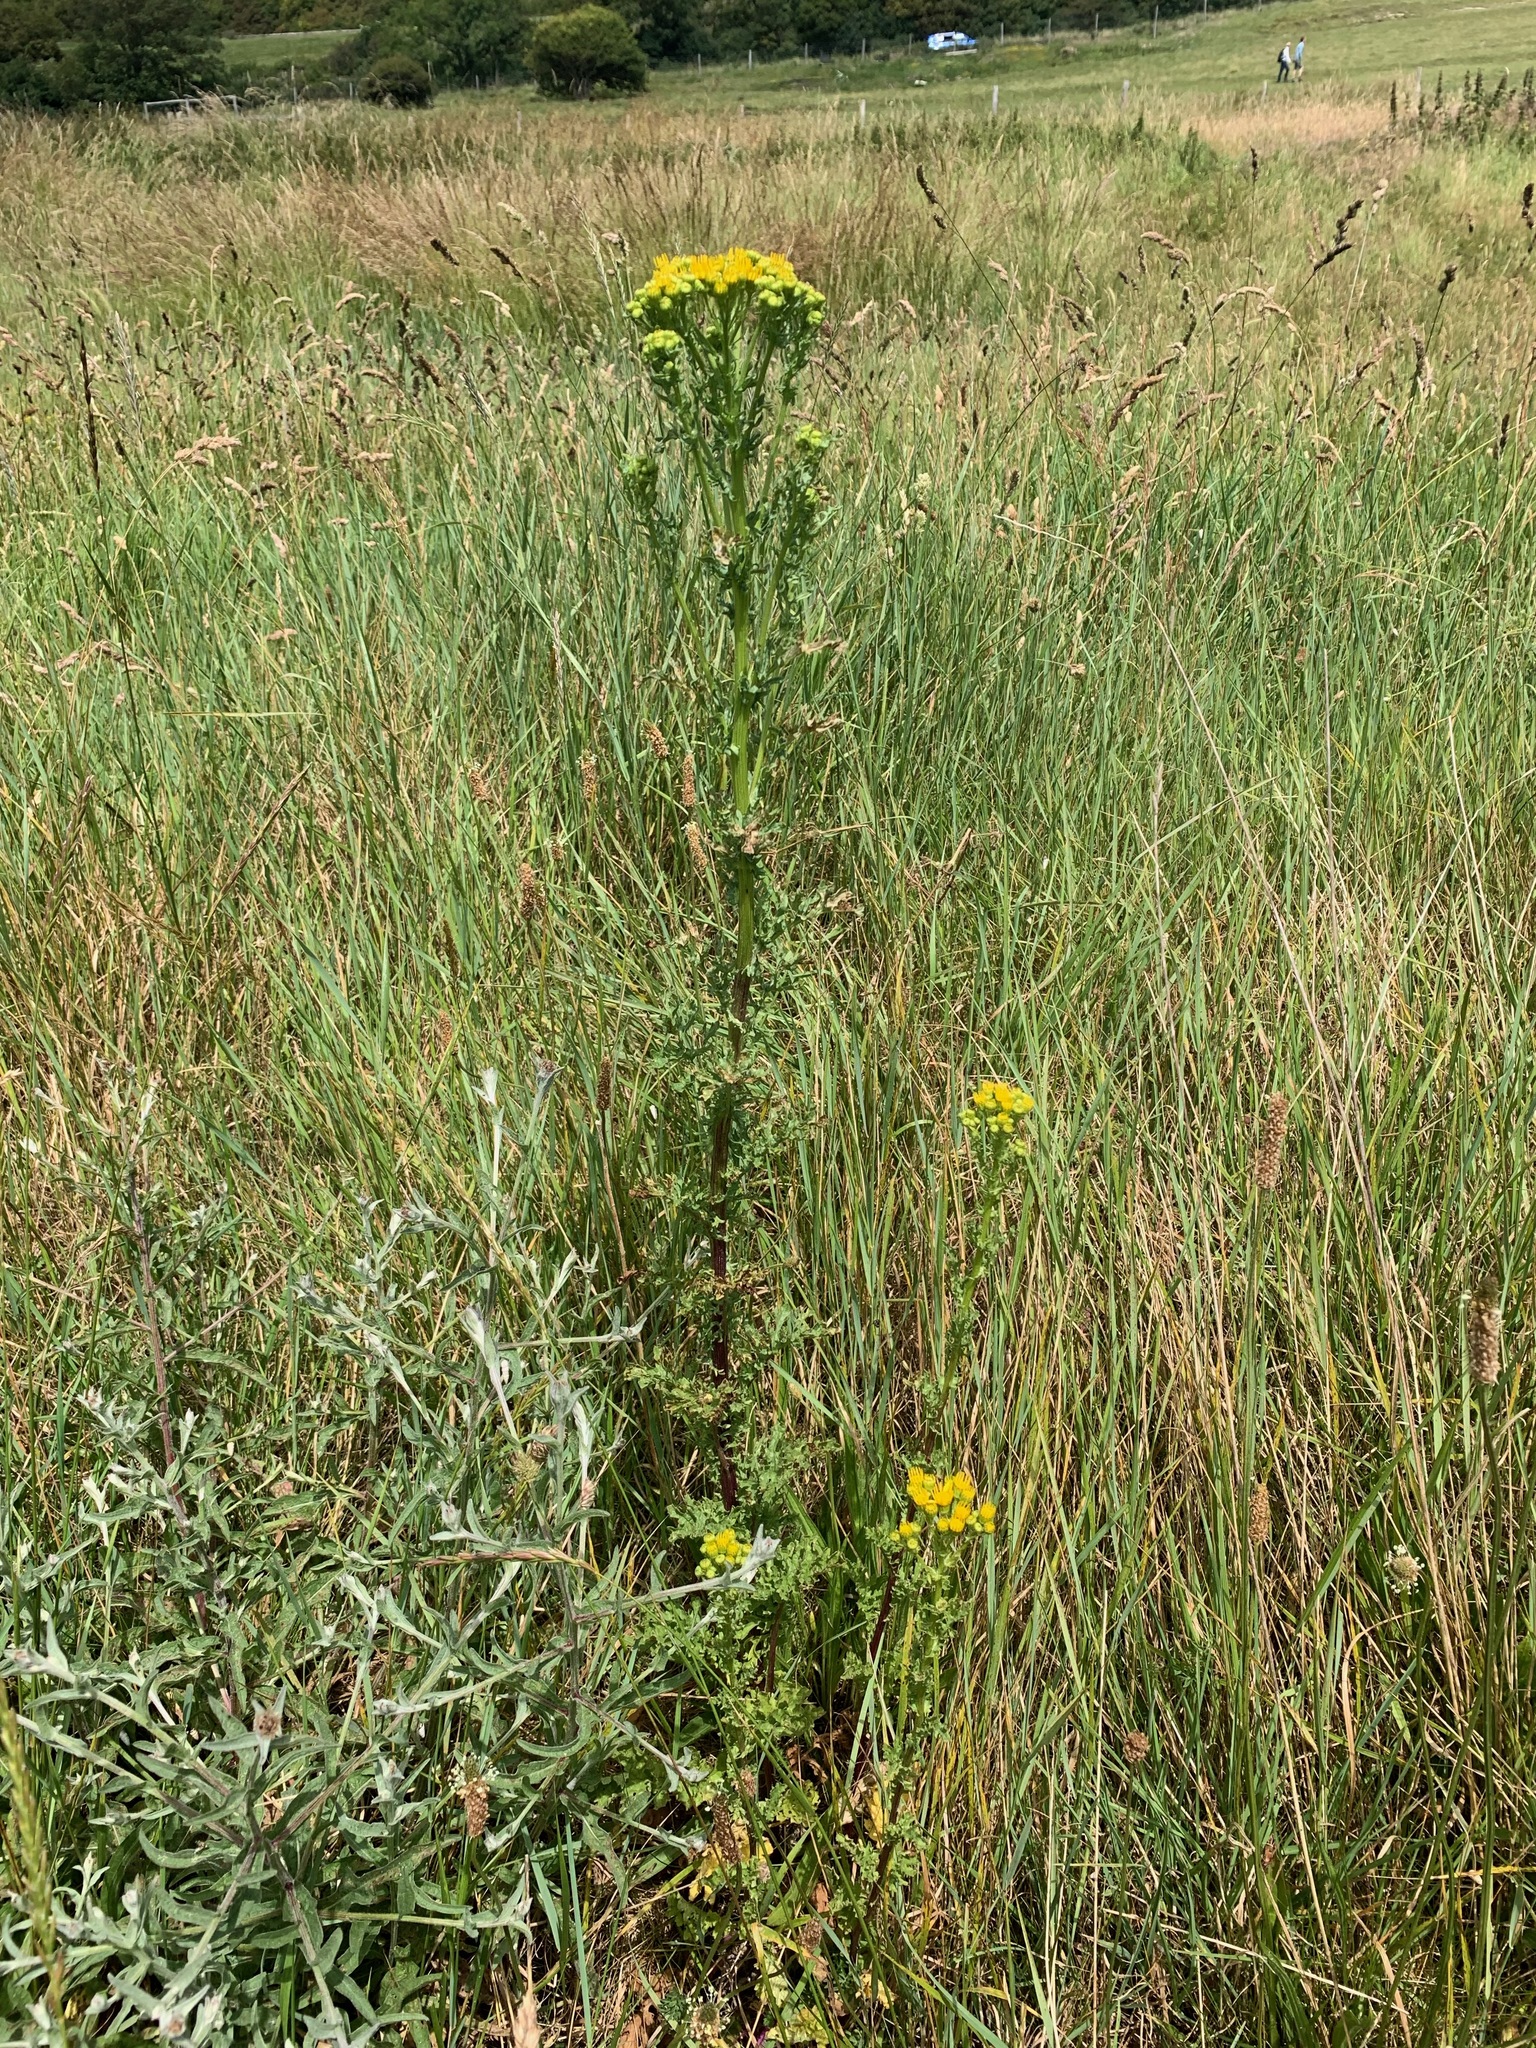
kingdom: Plantae
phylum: Tracheophyta
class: Magnoliopsida
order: Asterales
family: Asteraceae
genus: Jacobaea
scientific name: Jacobaea vulgaris
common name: Stinking willie
